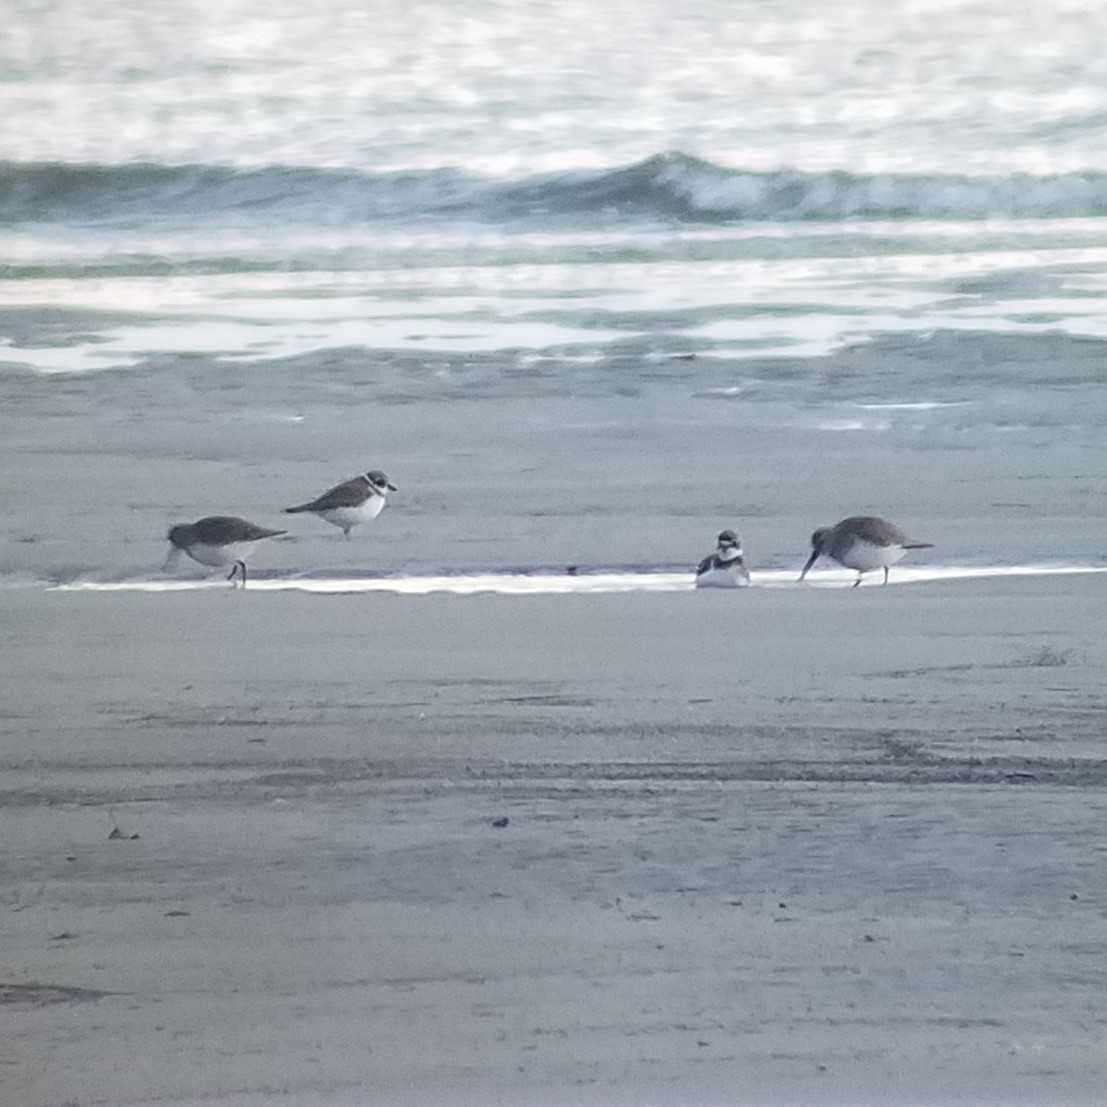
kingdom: Animalia
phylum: Chordata
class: Aves
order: Charadriiformes
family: Charadriidae
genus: Charadrius
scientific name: Charadrius semipalmatus
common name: Semipalmated plover
